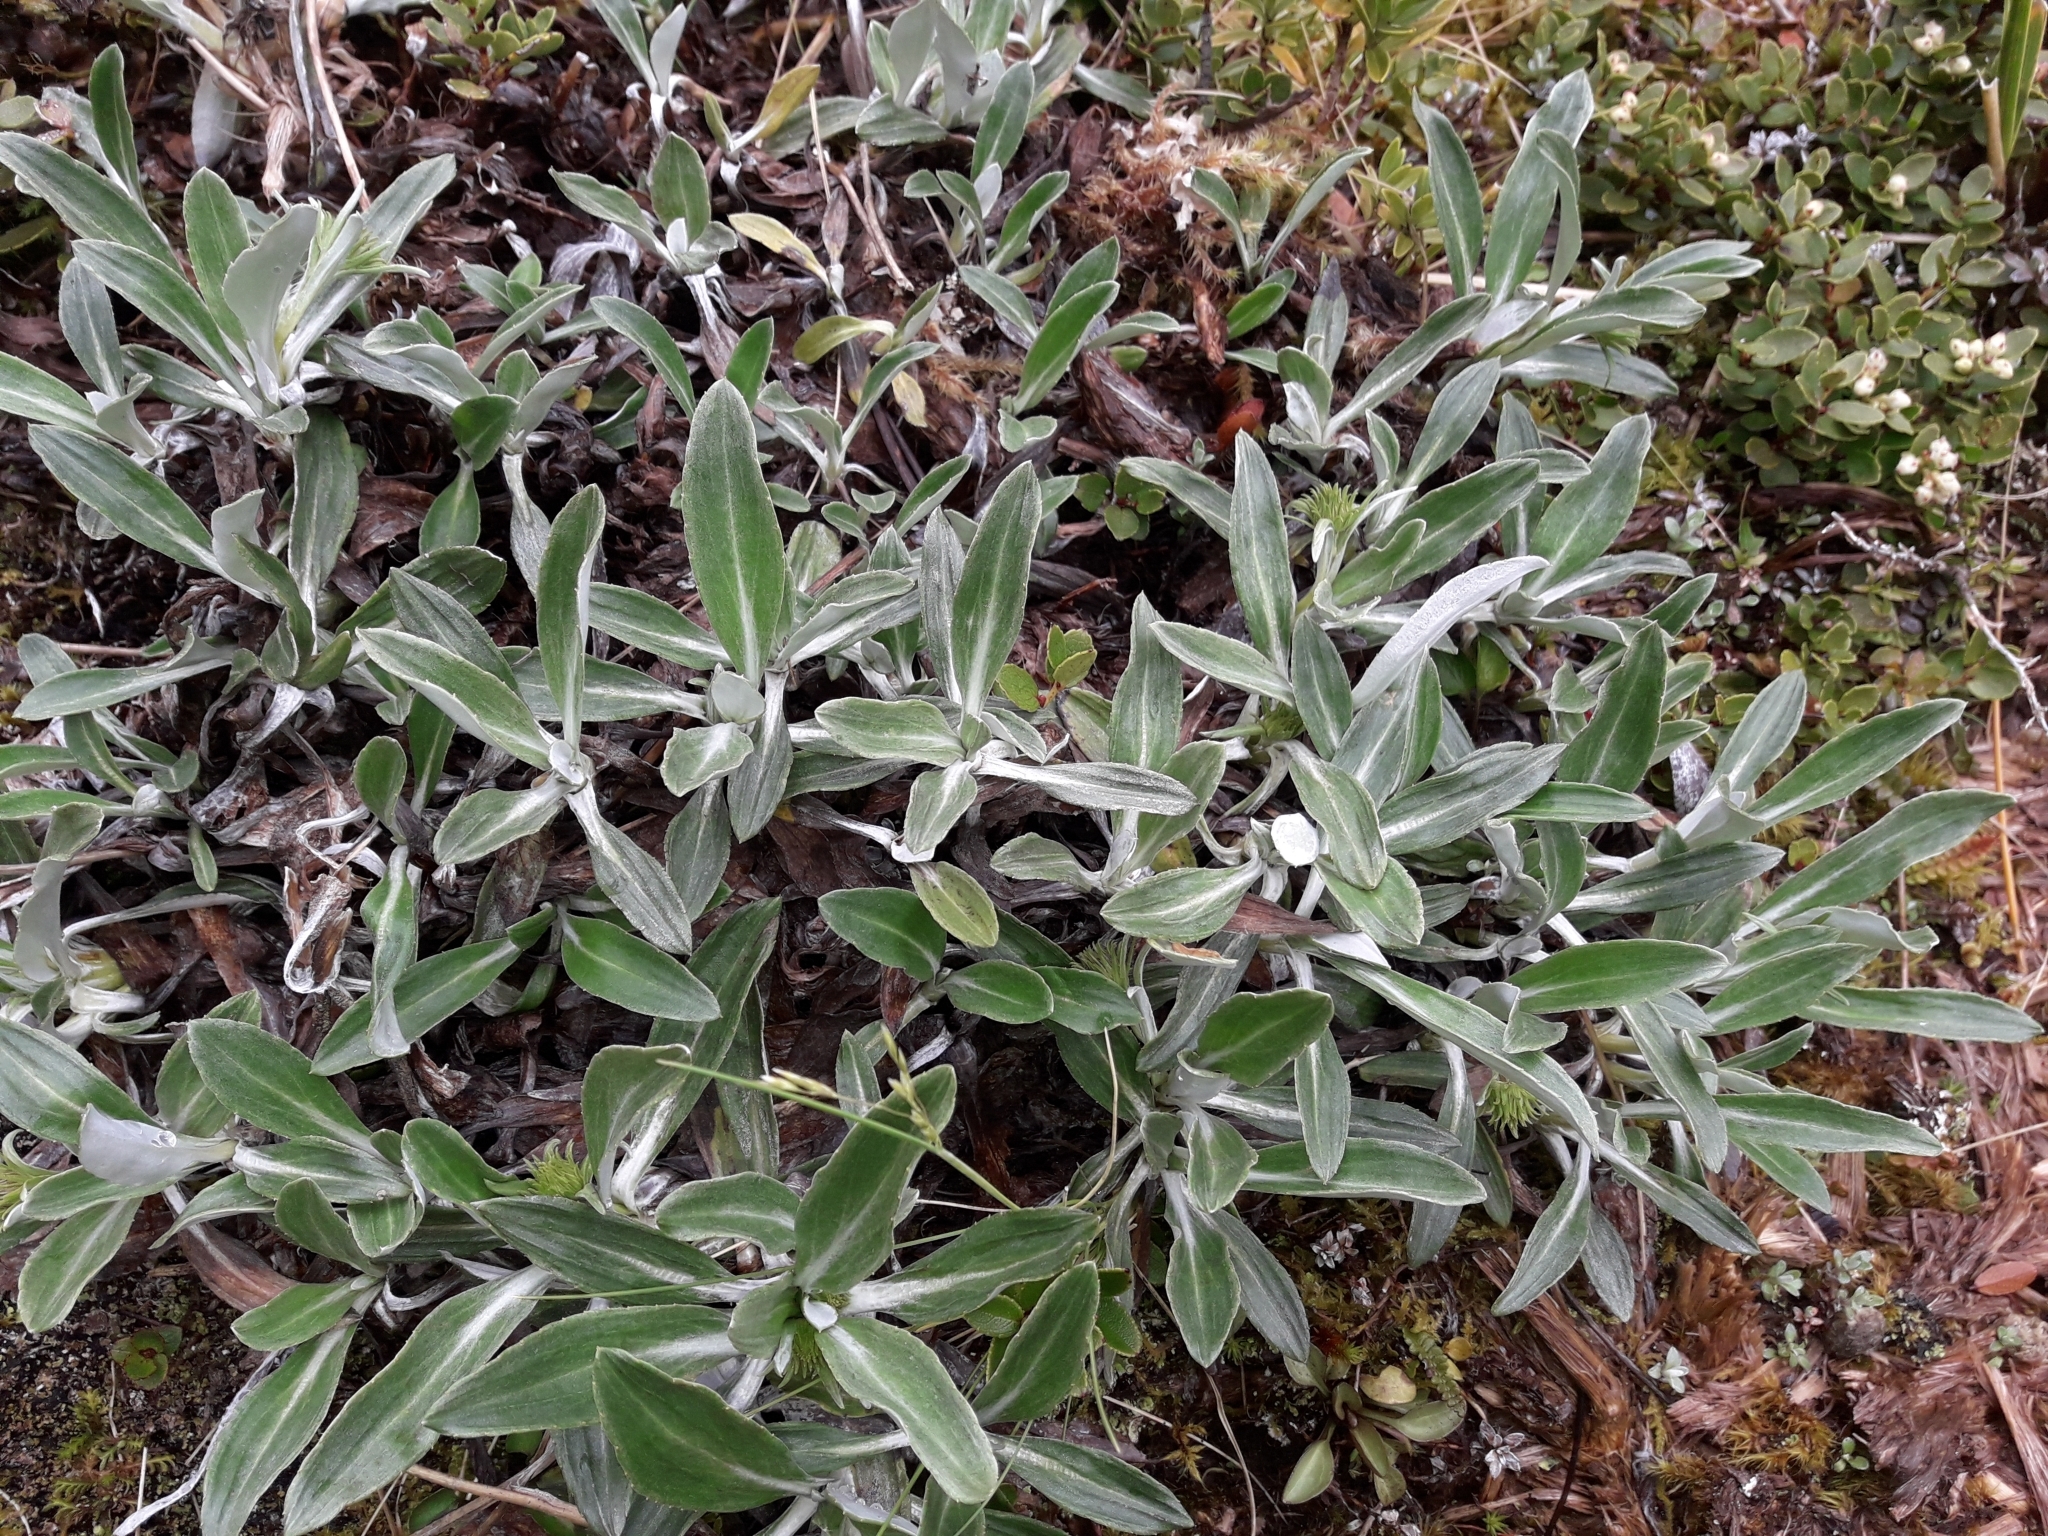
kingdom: Plantae
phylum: Tracheophyta
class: Magnoliopsida
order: Asterales
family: Asteraceae
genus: Celmisia
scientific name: Celmisia durietzii
